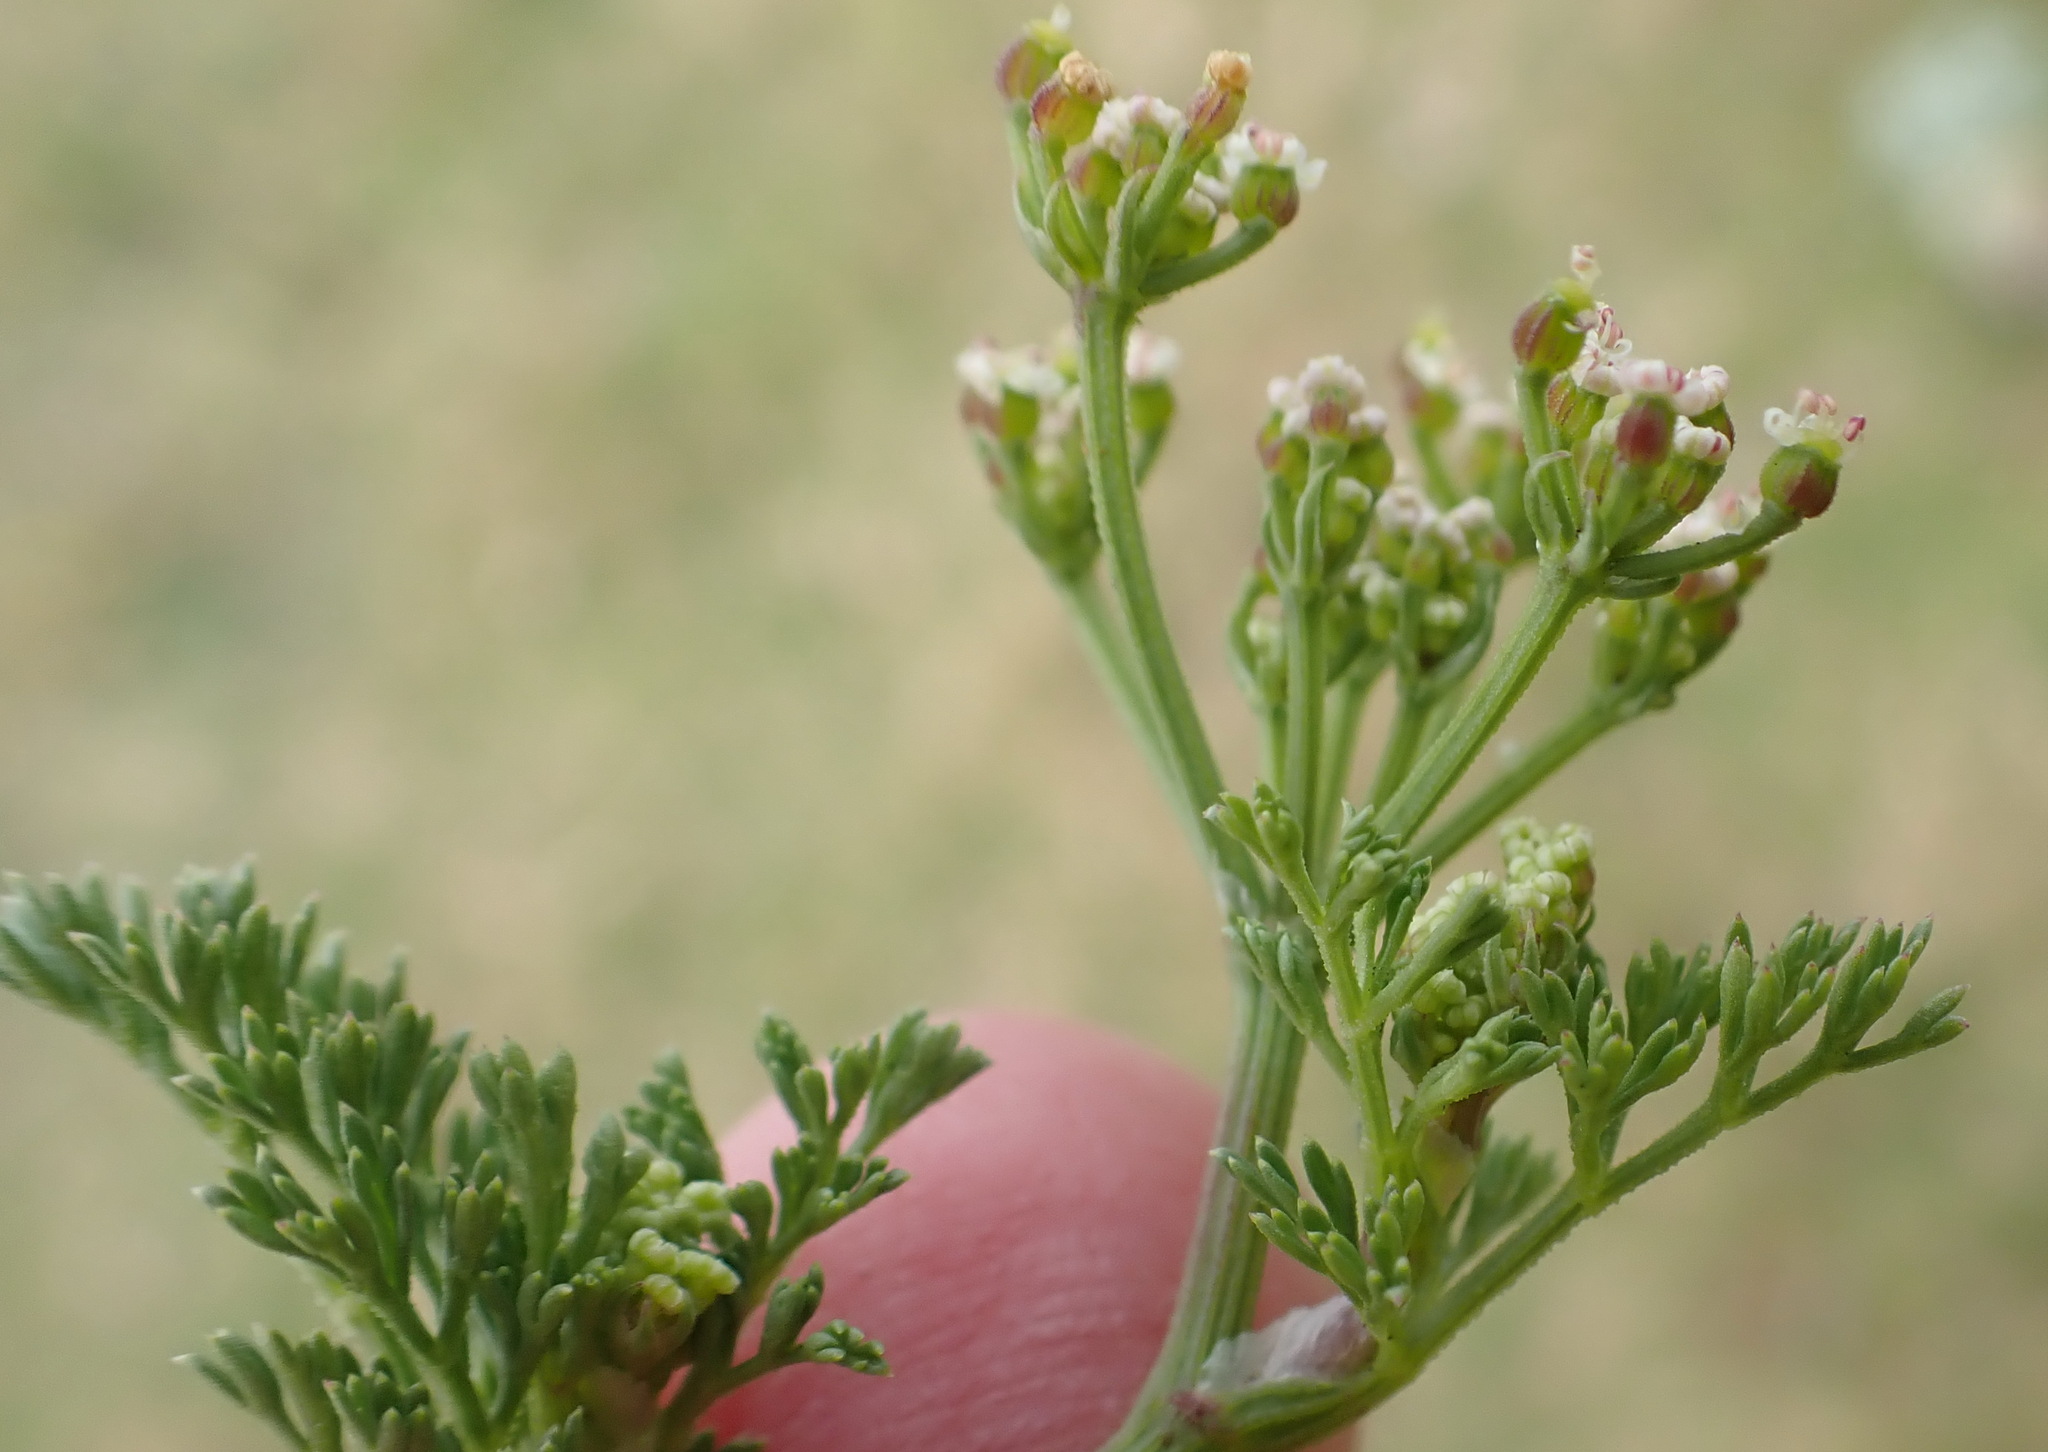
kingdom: Plantae
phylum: Tracheophyta
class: Magnoliopsida
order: Apiales
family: Apiaceae
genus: Dasispermum
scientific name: Dasispermum suffruticosum
